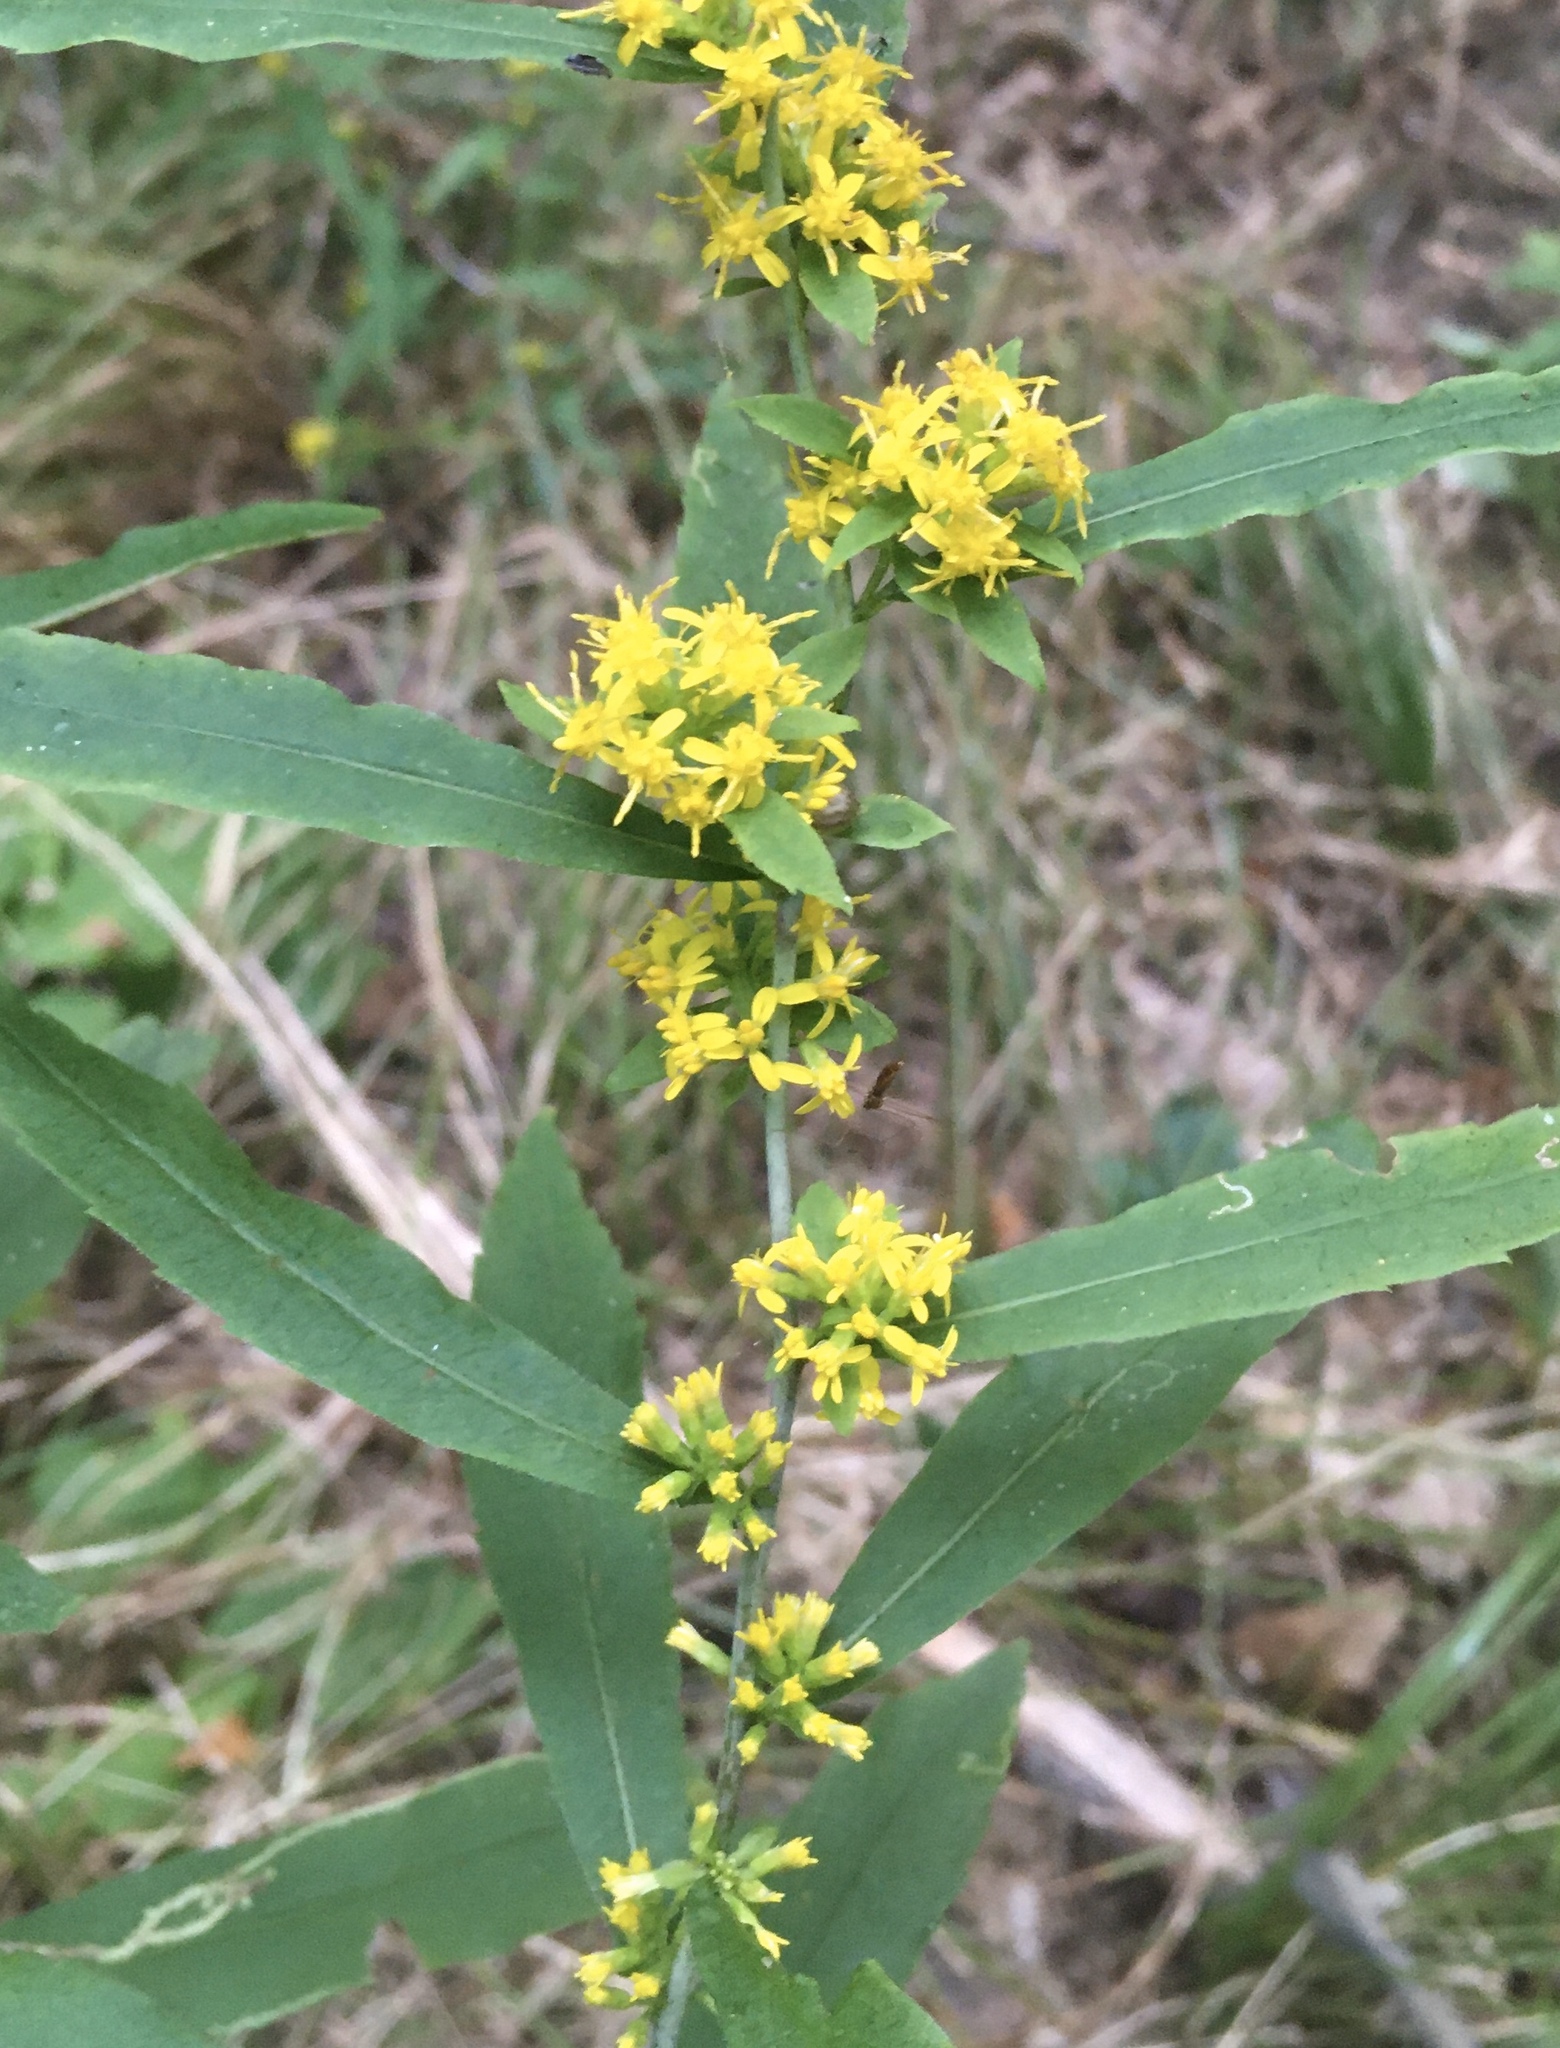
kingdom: Plantae
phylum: Tracheophyta
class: Magnoliopsida
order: Asterales
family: Asteraceae
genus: Solidago
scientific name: Solidago caesia
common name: Woodland goldenrod
